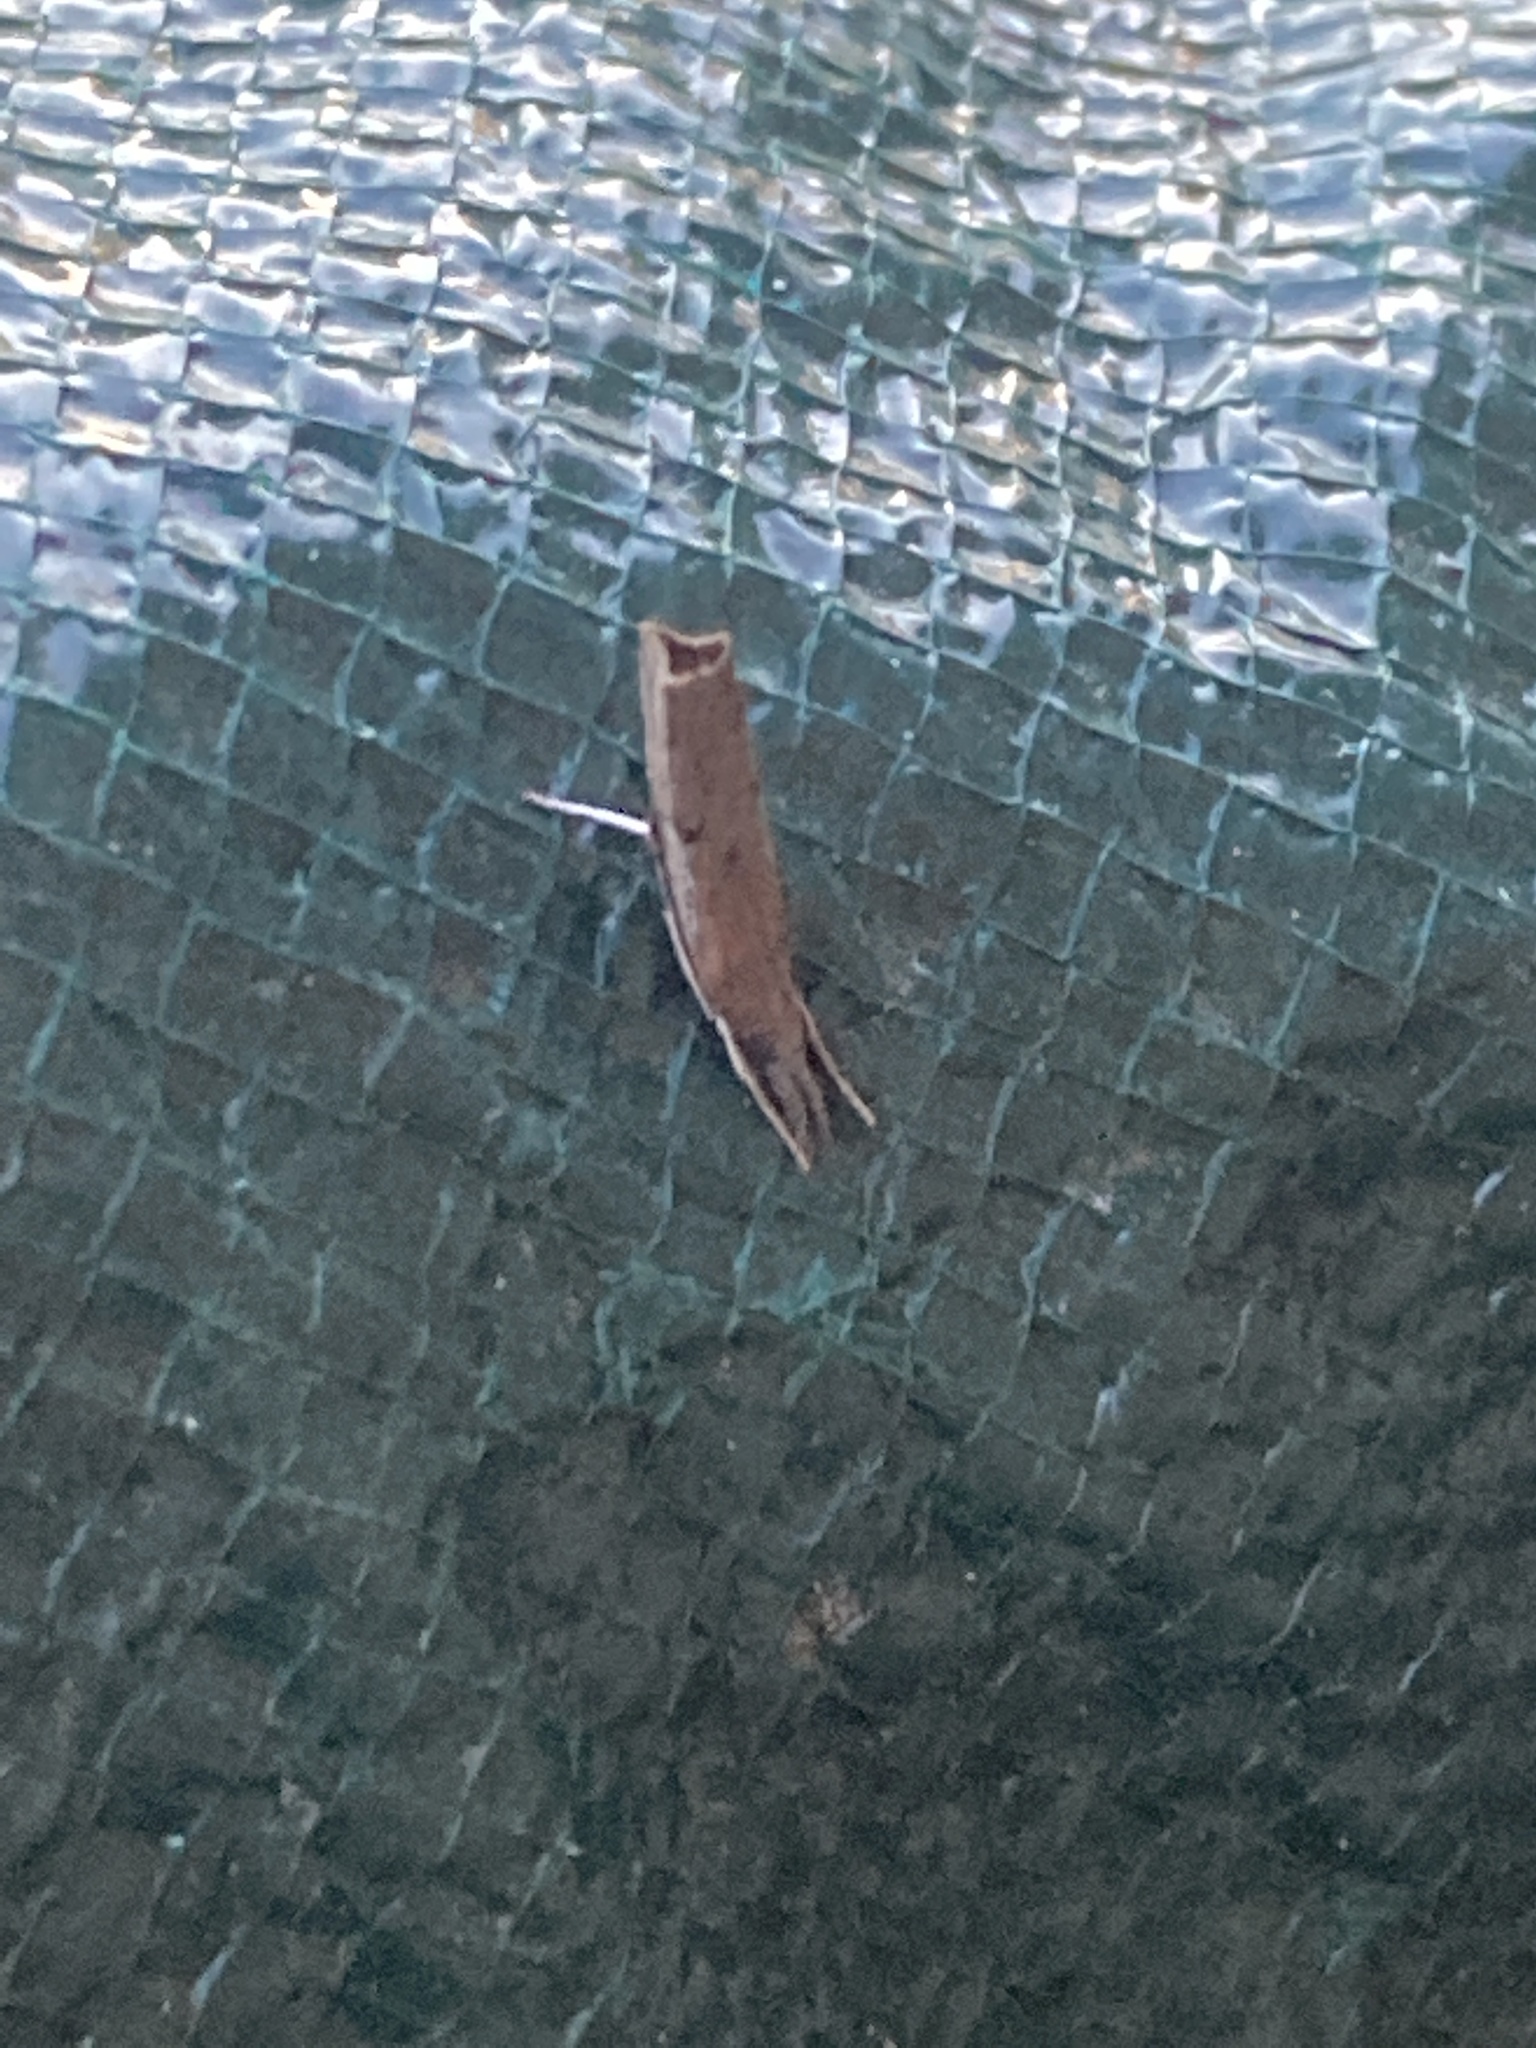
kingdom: Animalia
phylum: Arthropoda
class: Insecta
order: Lepidoptera
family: Crambidae
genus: Parapediasia
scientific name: Parapediasia teterellus
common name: Bluegrass webworm moth
